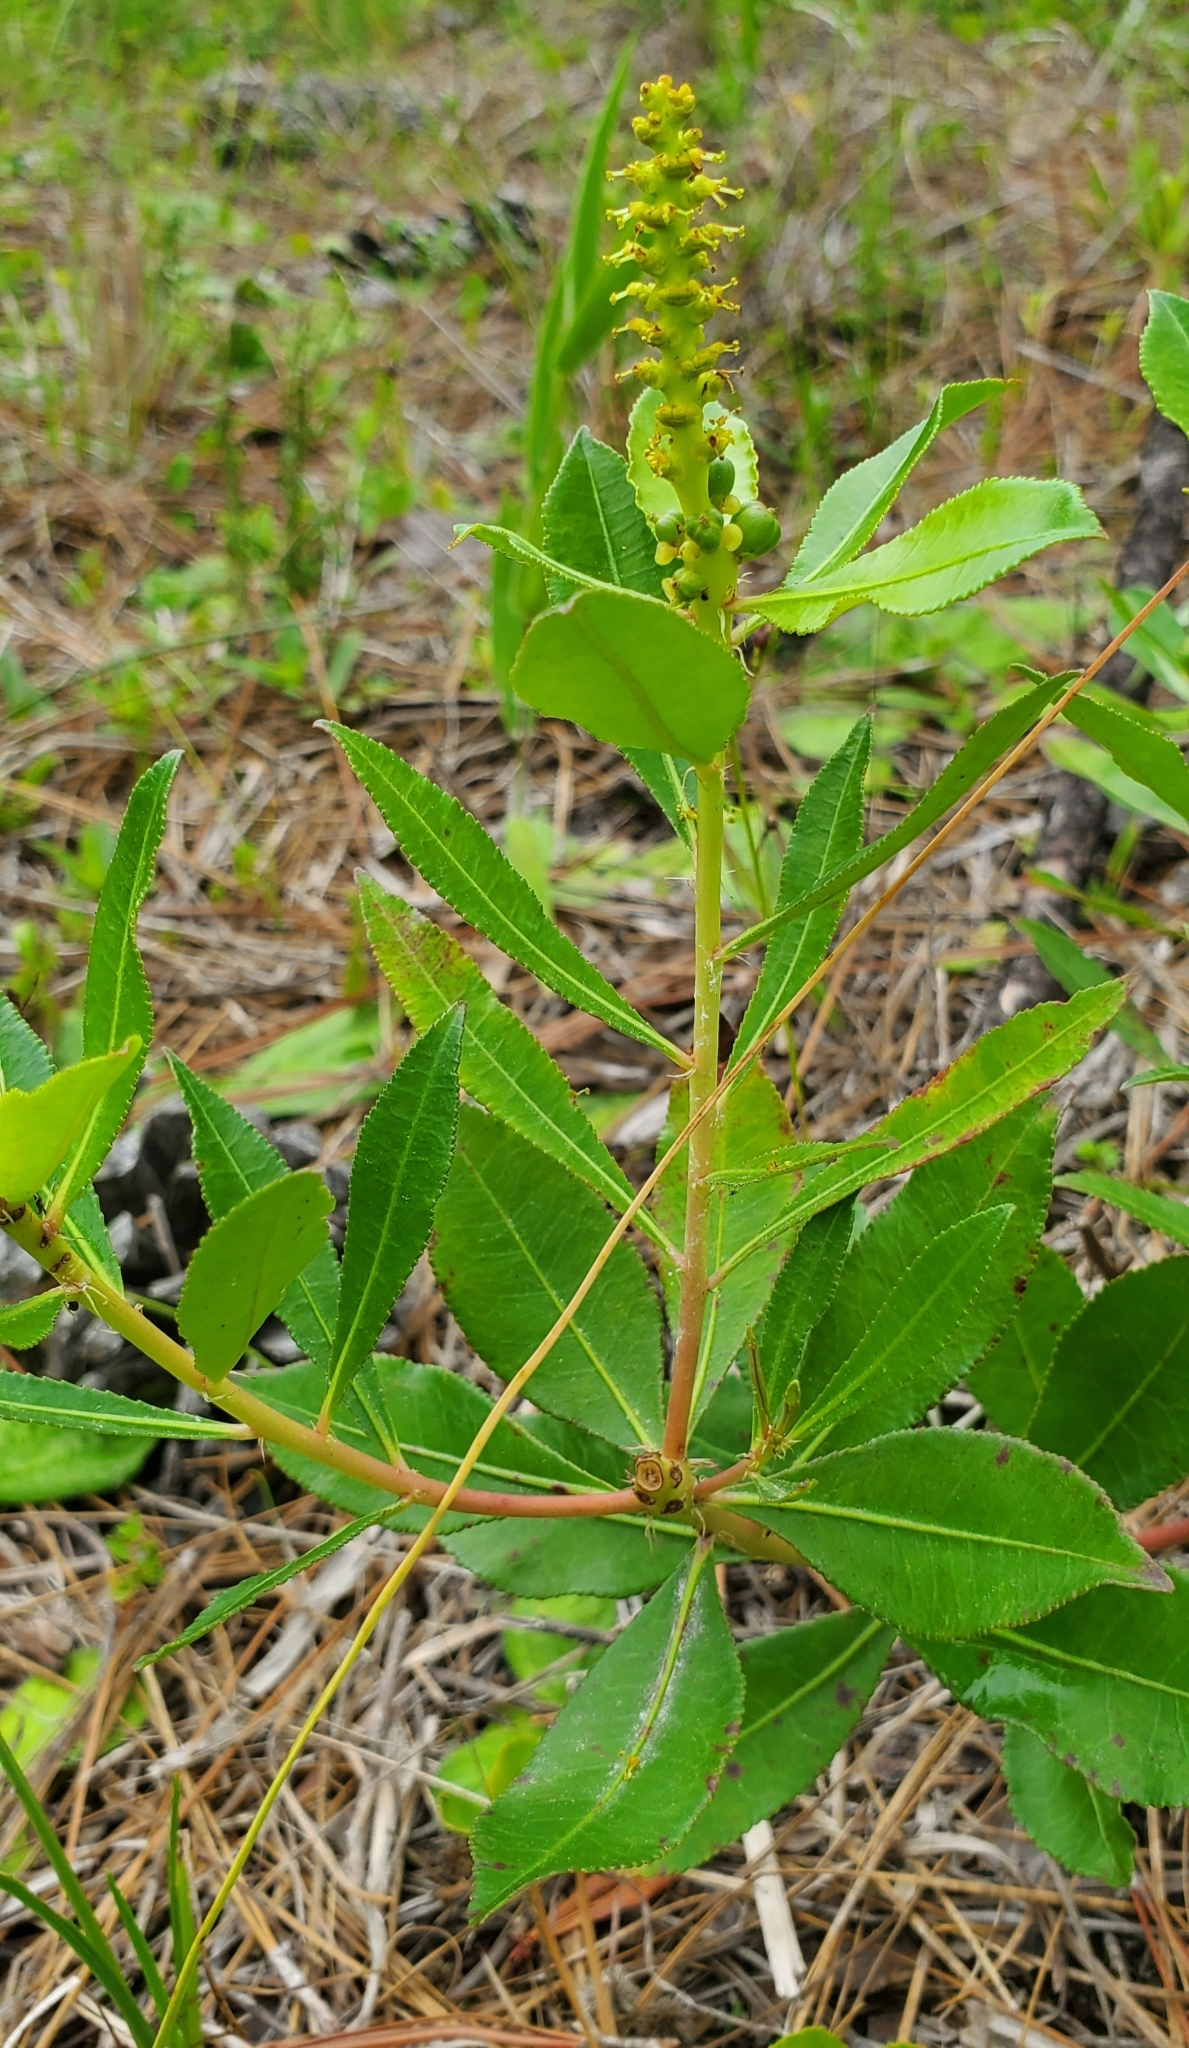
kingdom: Plantae
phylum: Tracheophyta
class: Magnoliopsida
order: Malpighiales
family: Euphorbiaceae
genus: Stillingia
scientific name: Stillingia sylvatica
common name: Queen's-delight
